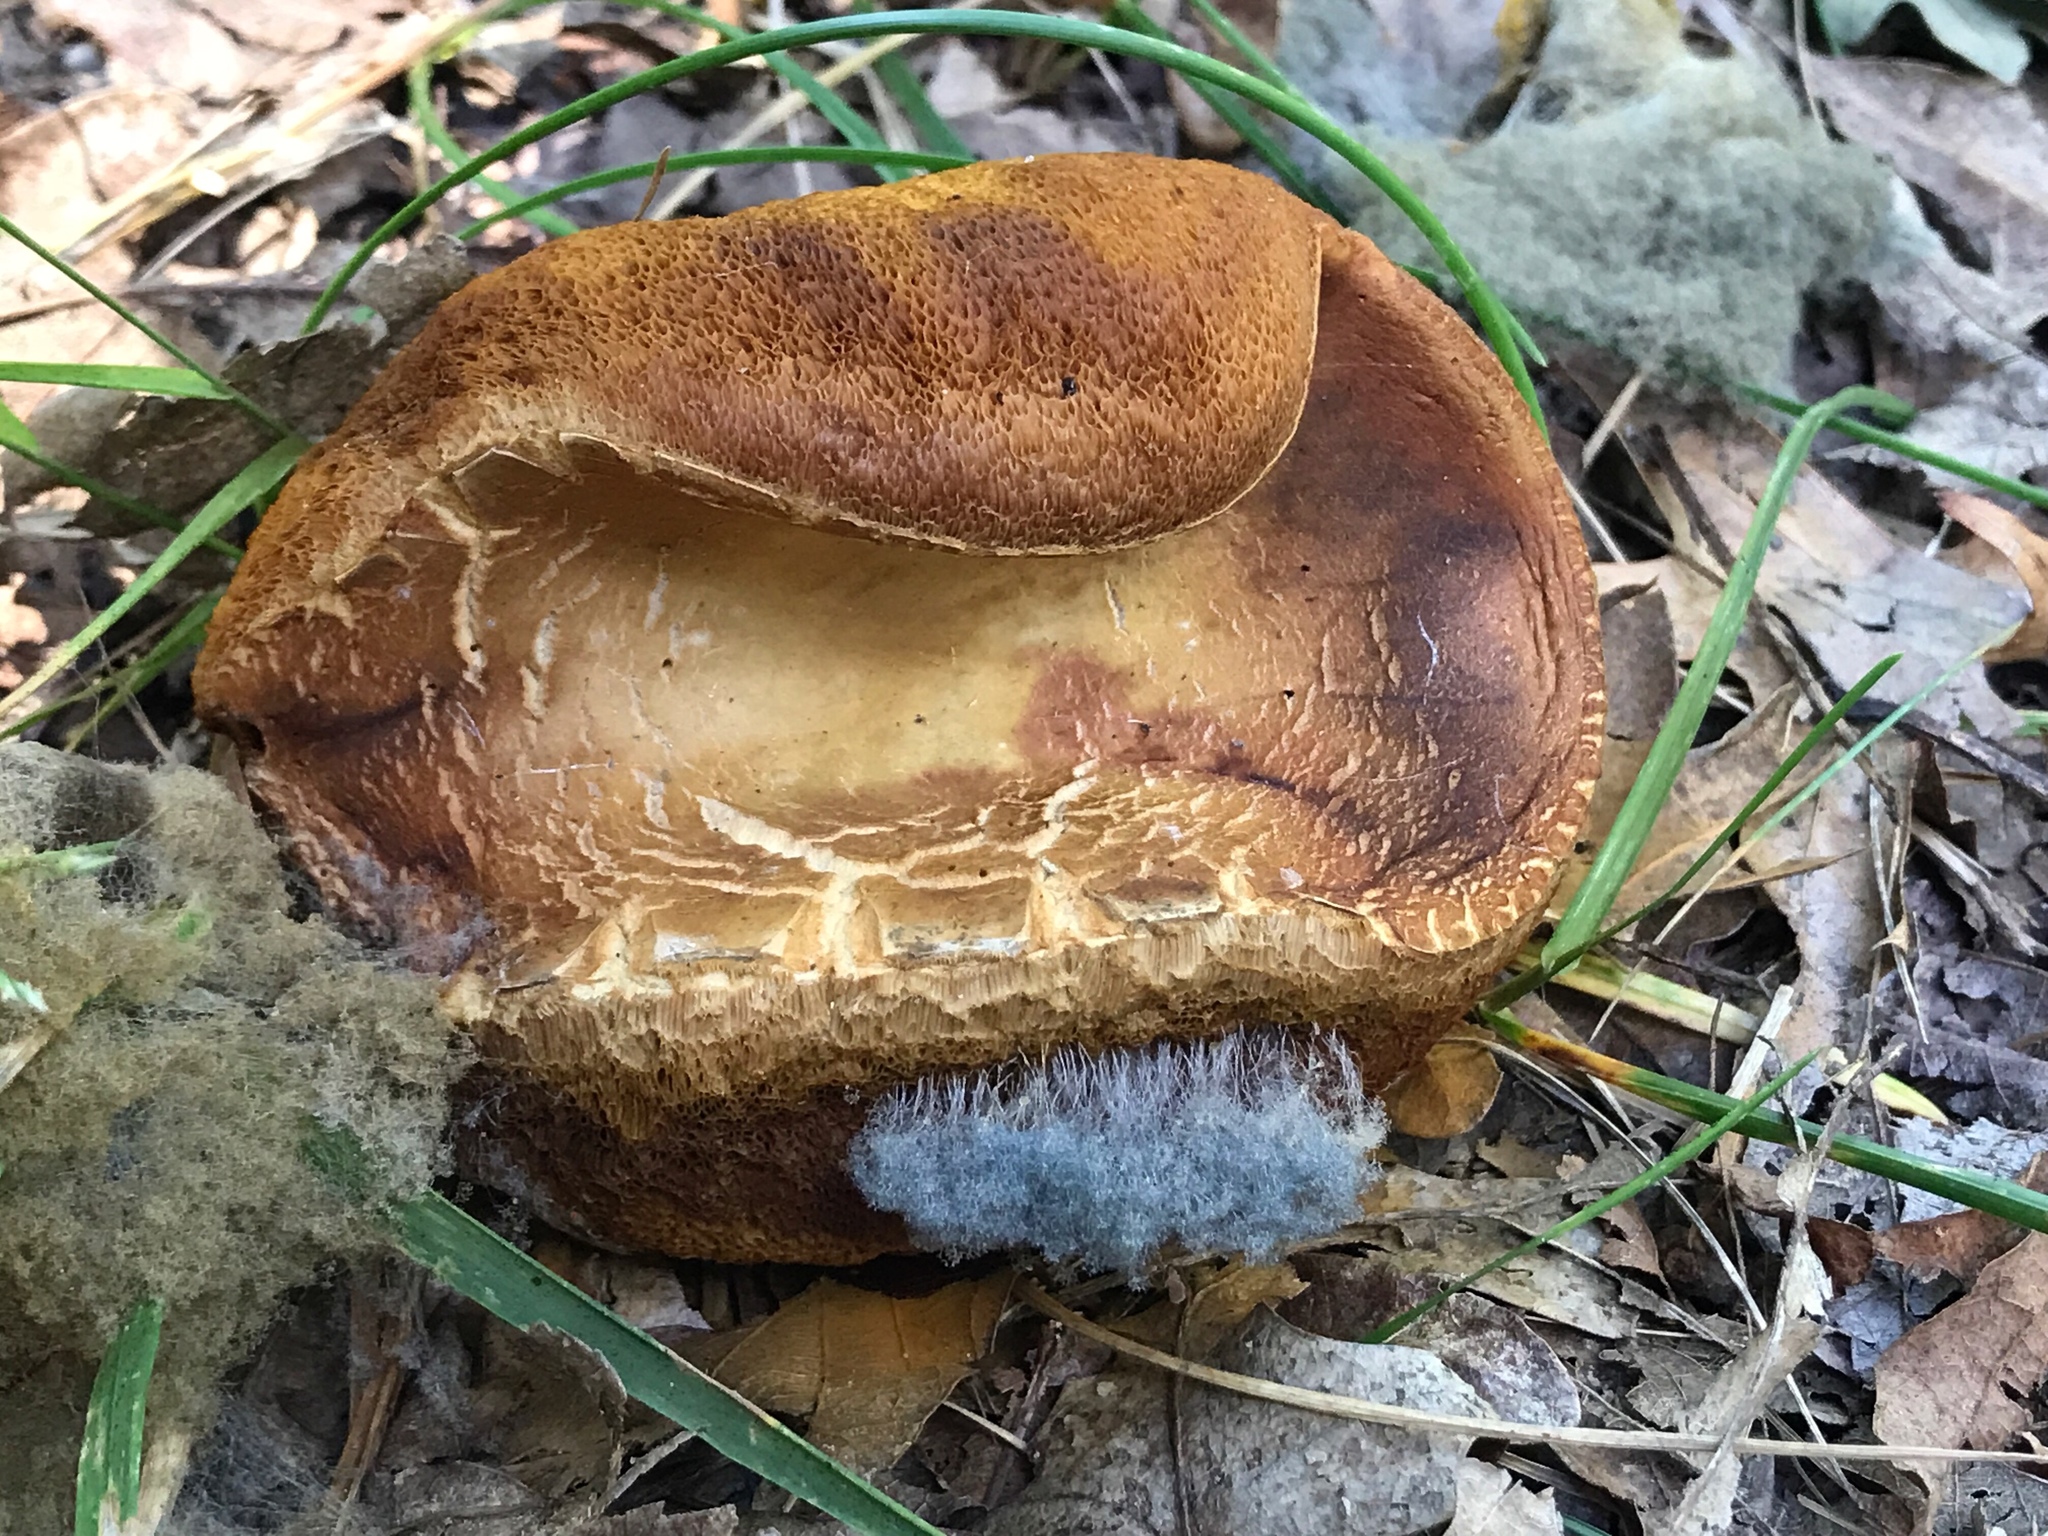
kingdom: Fungi
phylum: Mucoromycota
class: Mucoromycetes
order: Mucorales
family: Rhizopodaceae
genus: Syzygites
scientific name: Syzygites megalocarpus
